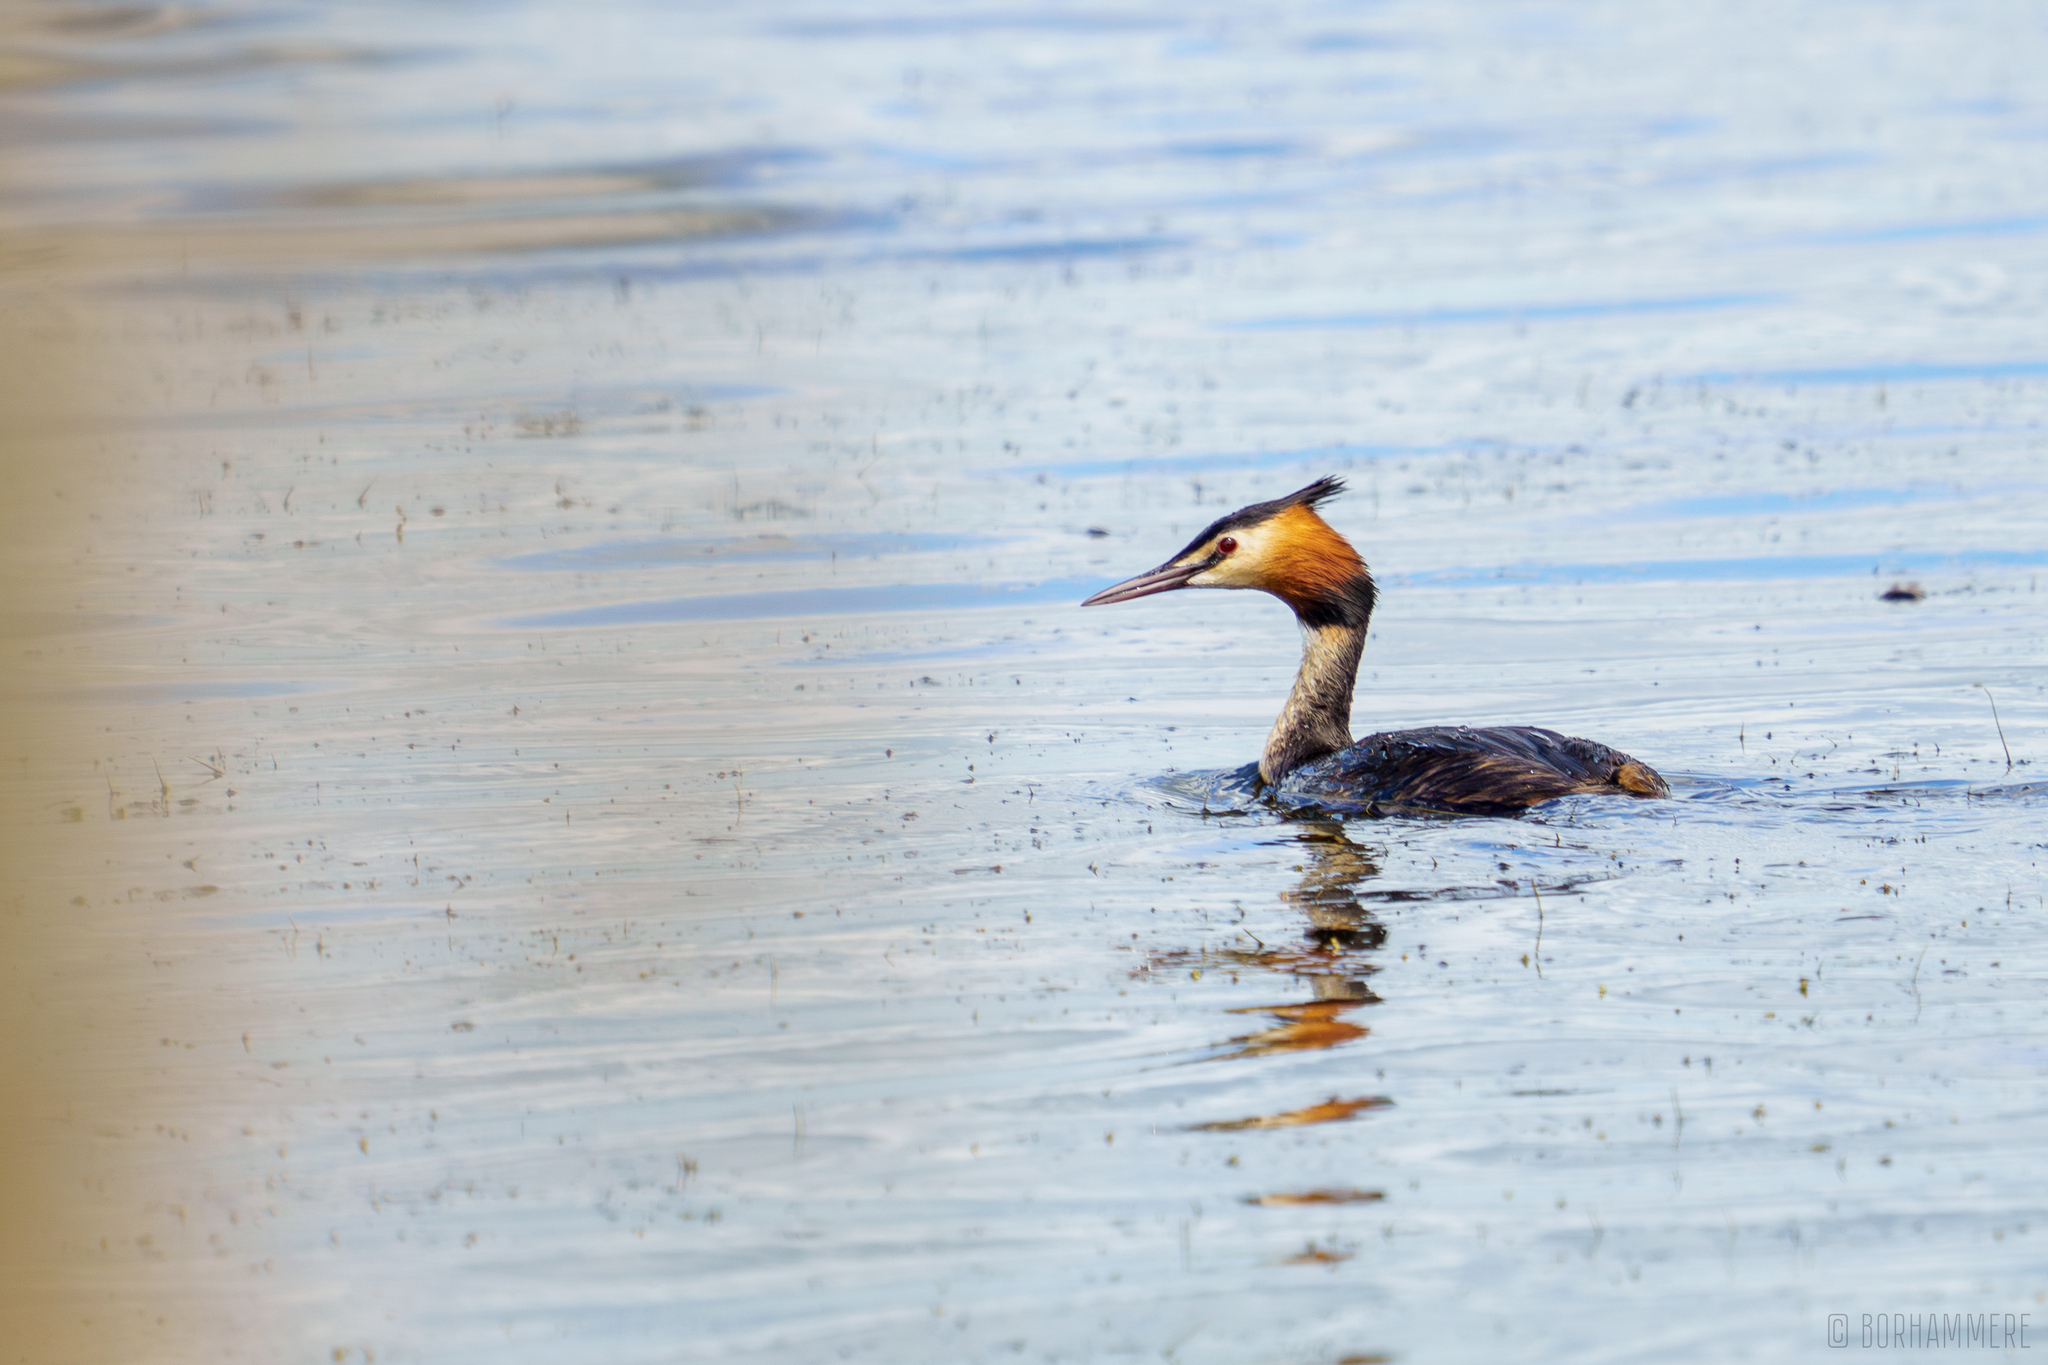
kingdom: Animalia
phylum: Chordata
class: Aves
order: Podicipediformes
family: Podicipedidae
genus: Podiceps
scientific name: Podiceps cristatus
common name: Great crested grebe
